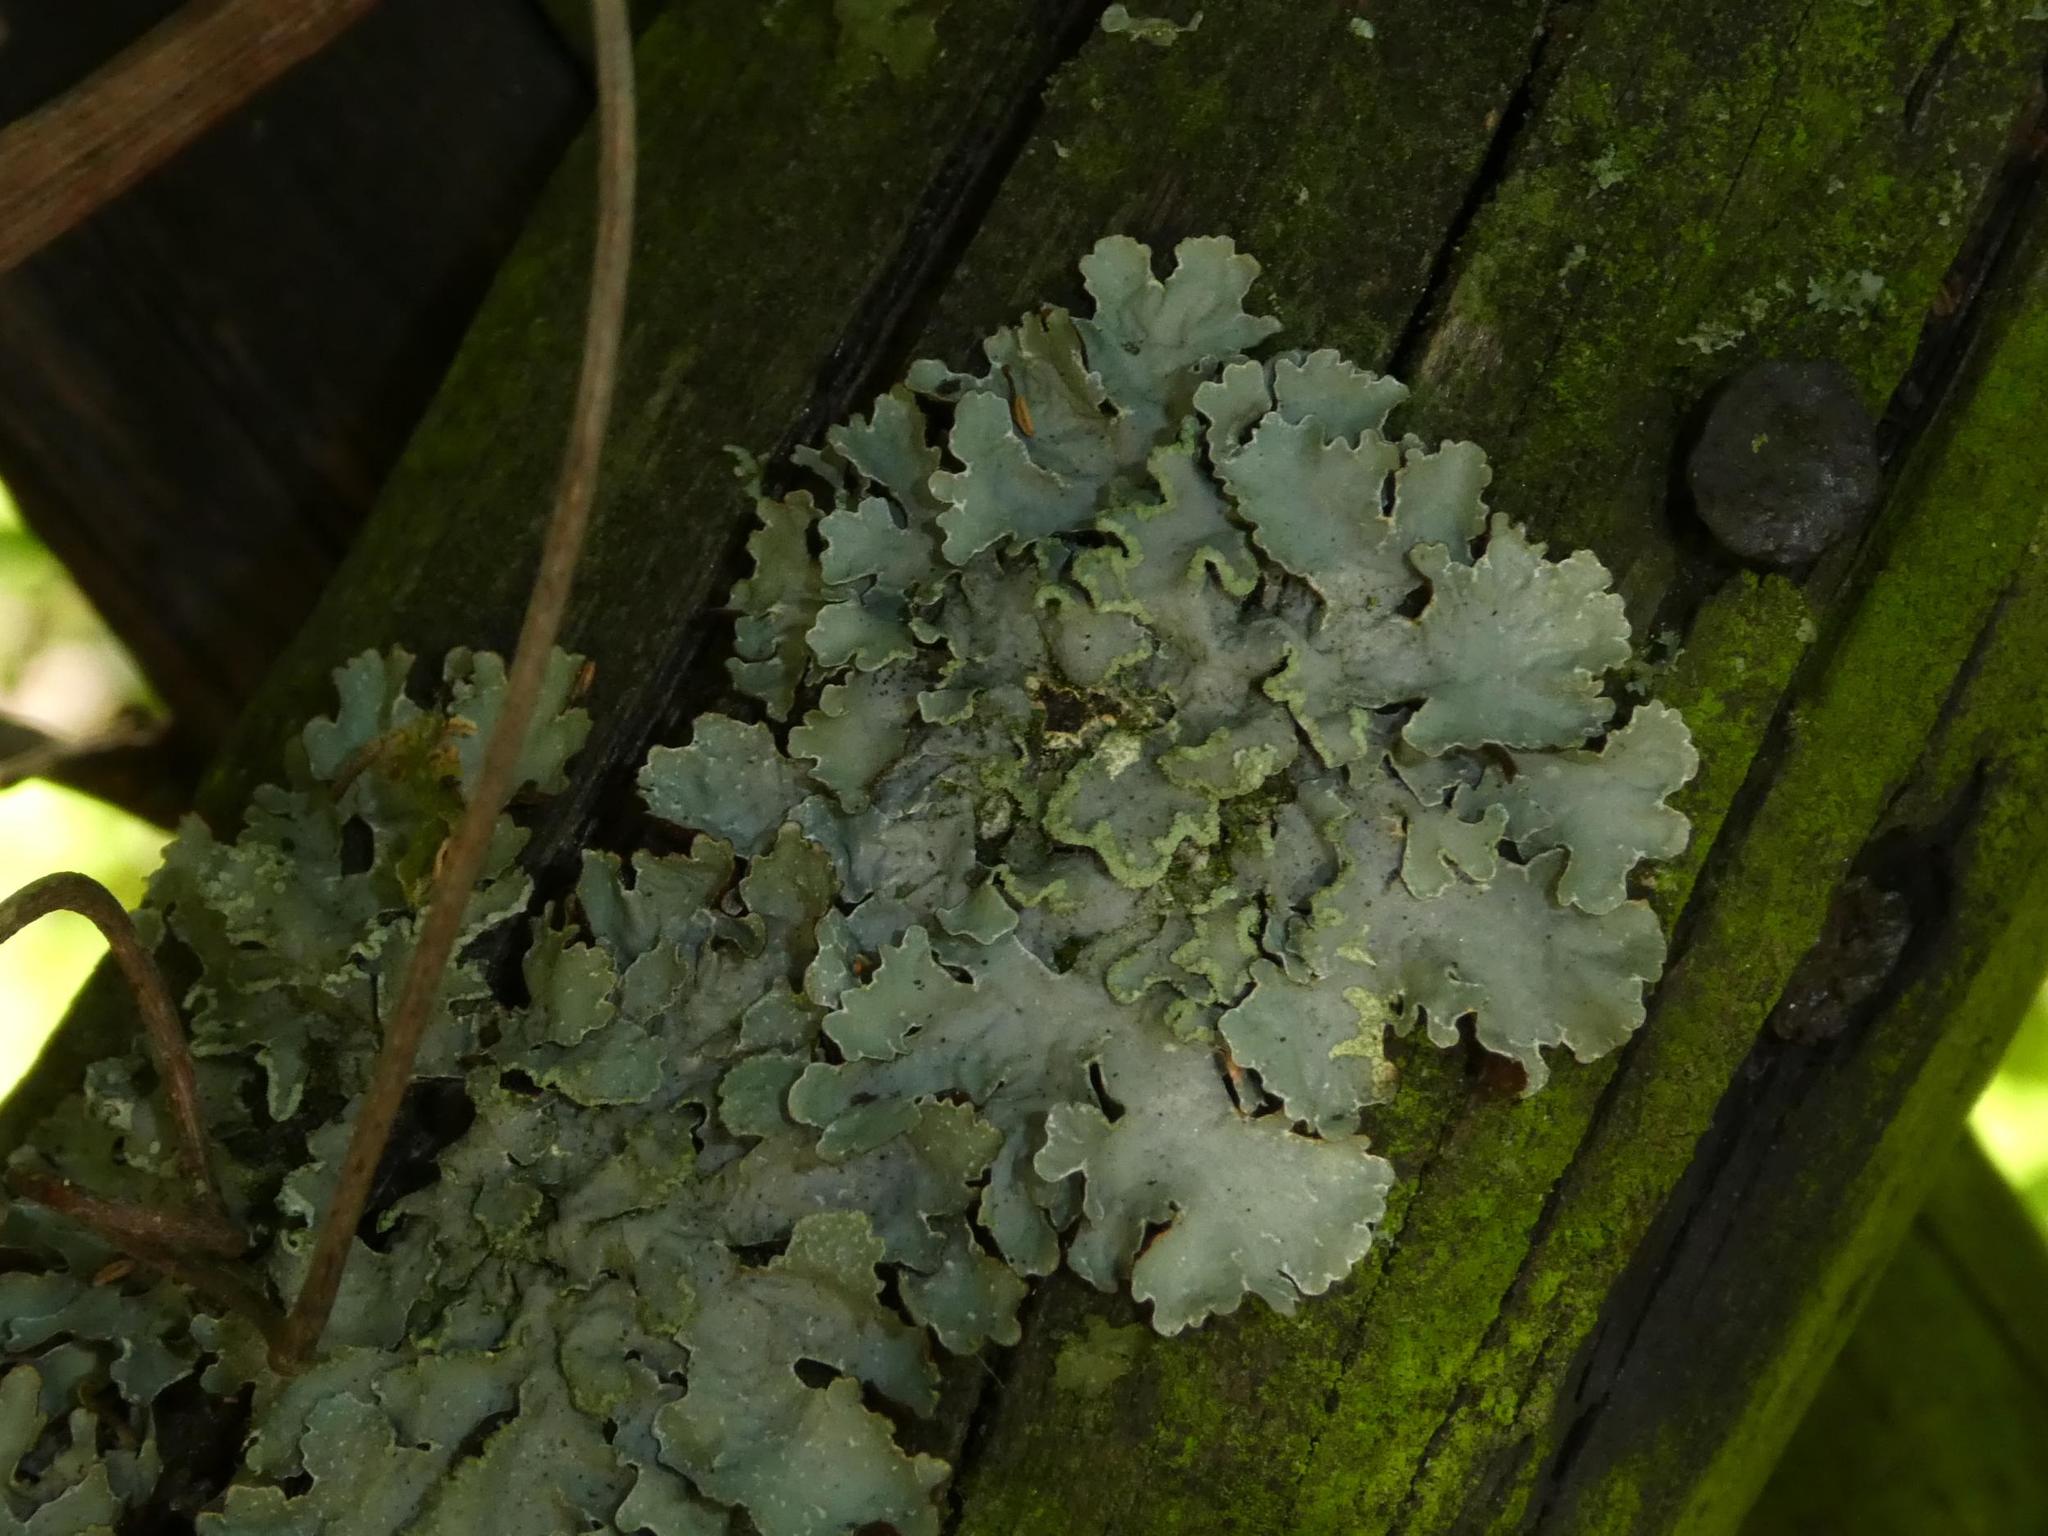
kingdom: Fungi
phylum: Ascomycota
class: Lecanoromycetes
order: Lecanorales
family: Parmeliaceae
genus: Parmelia
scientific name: Parmelia sulcata
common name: Netted shield lichen
